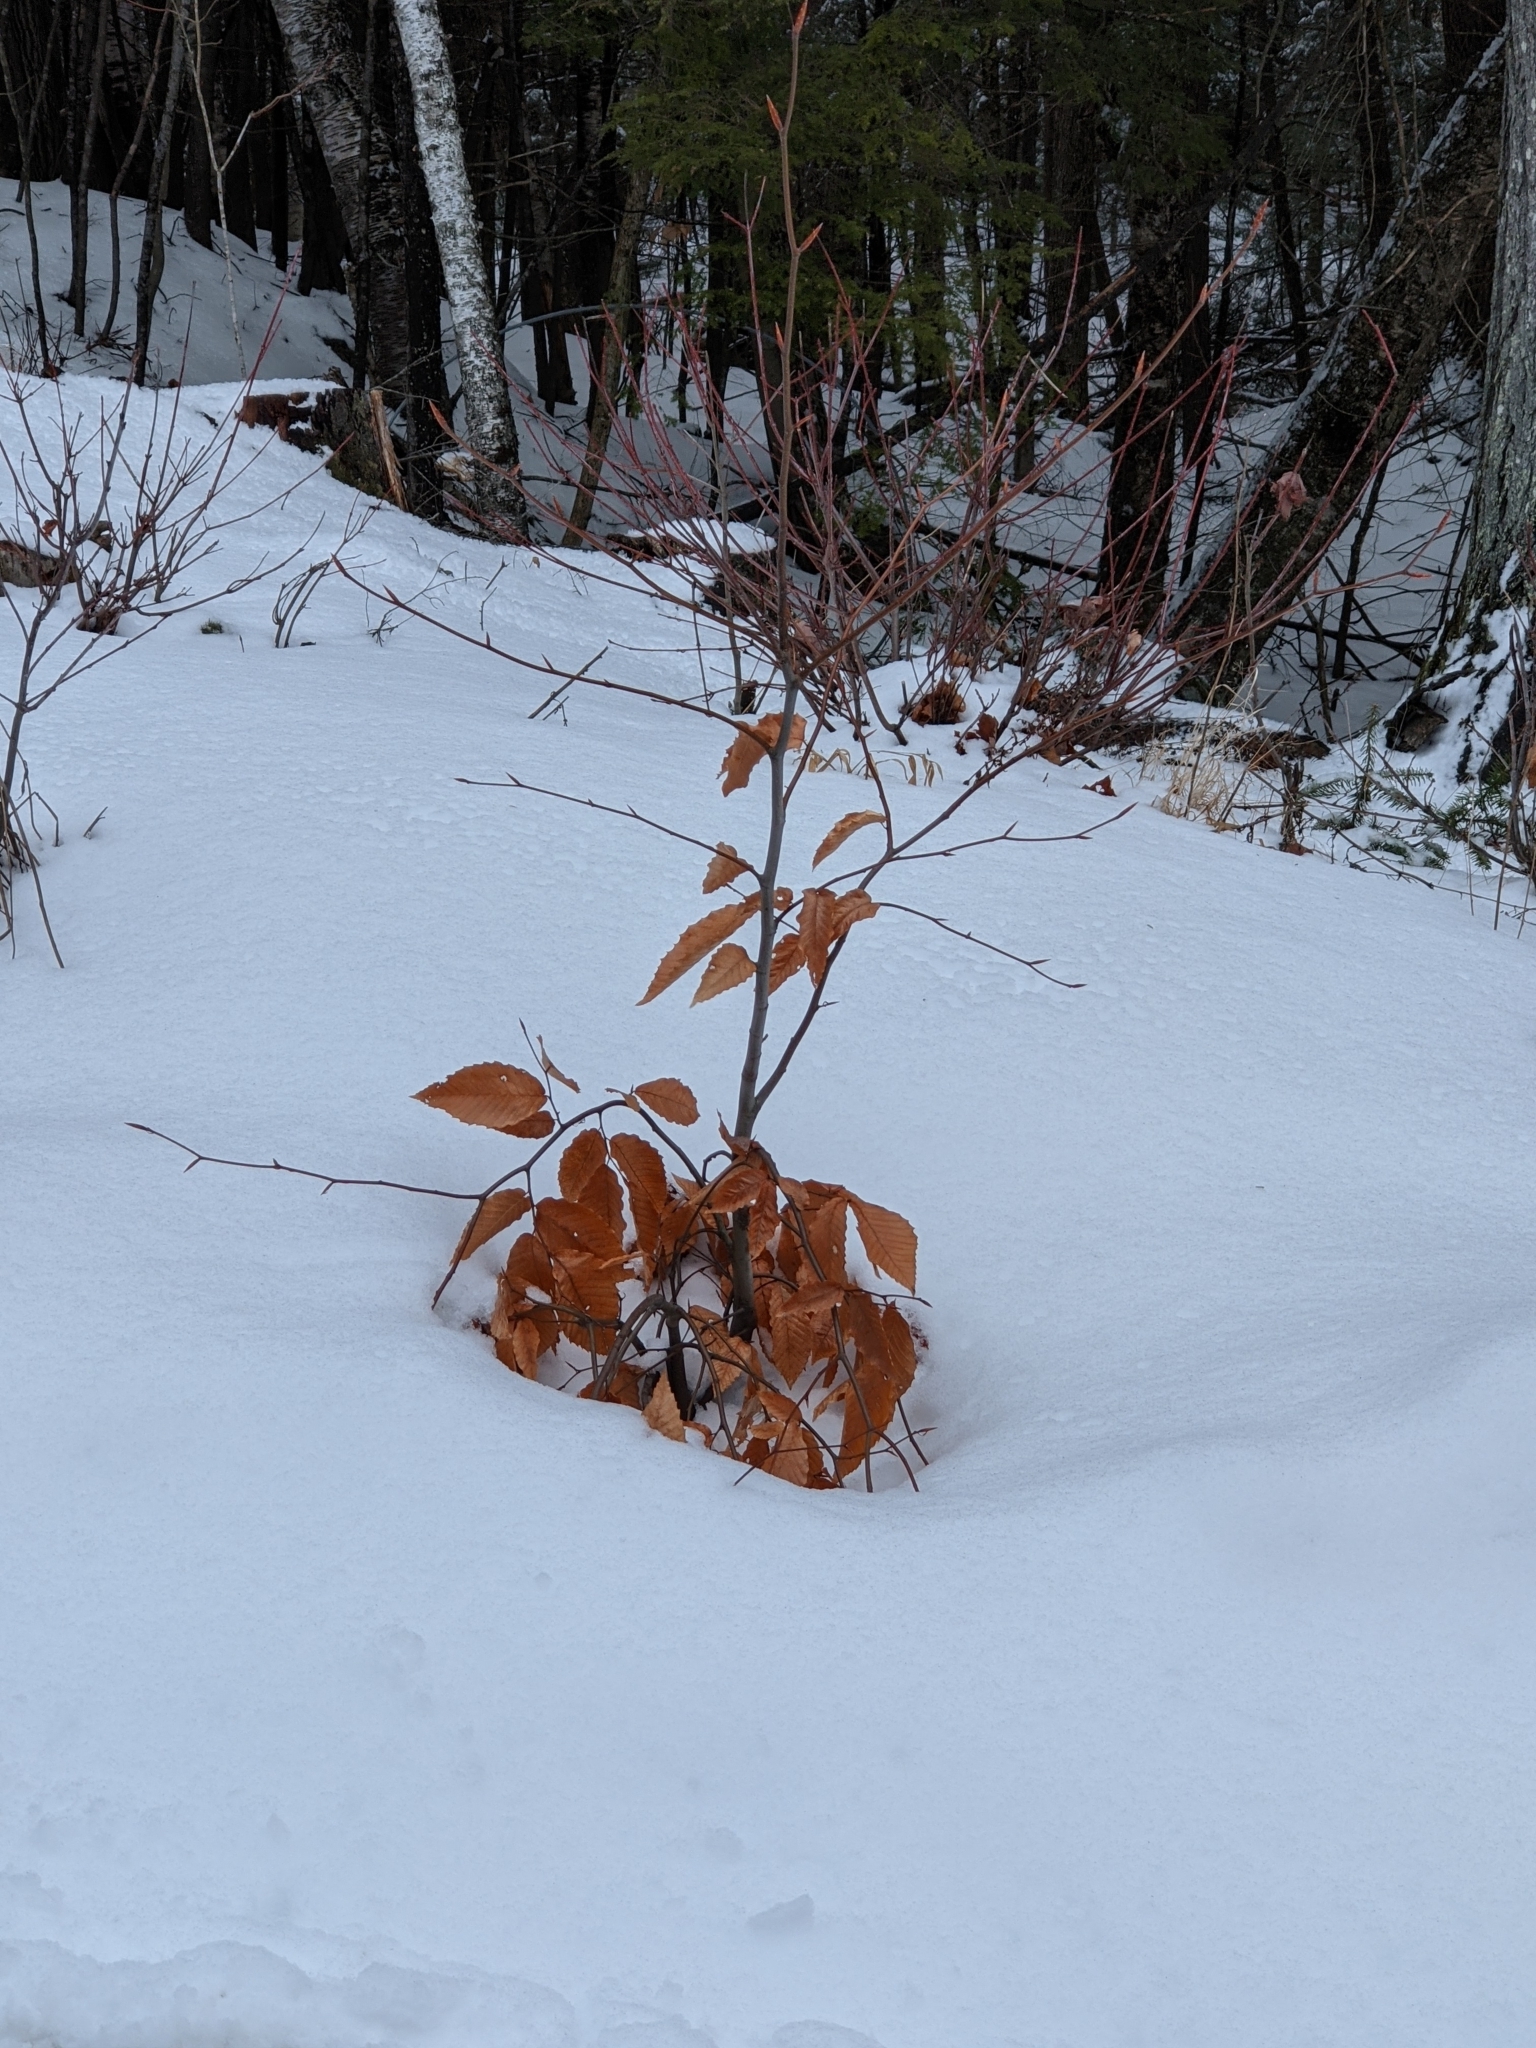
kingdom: Plantae
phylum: Tracheophyta
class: Magnoliopsida
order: Fagales
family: Fagaceae
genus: Fagus
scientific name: Fagus grandifolia
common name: American beech
